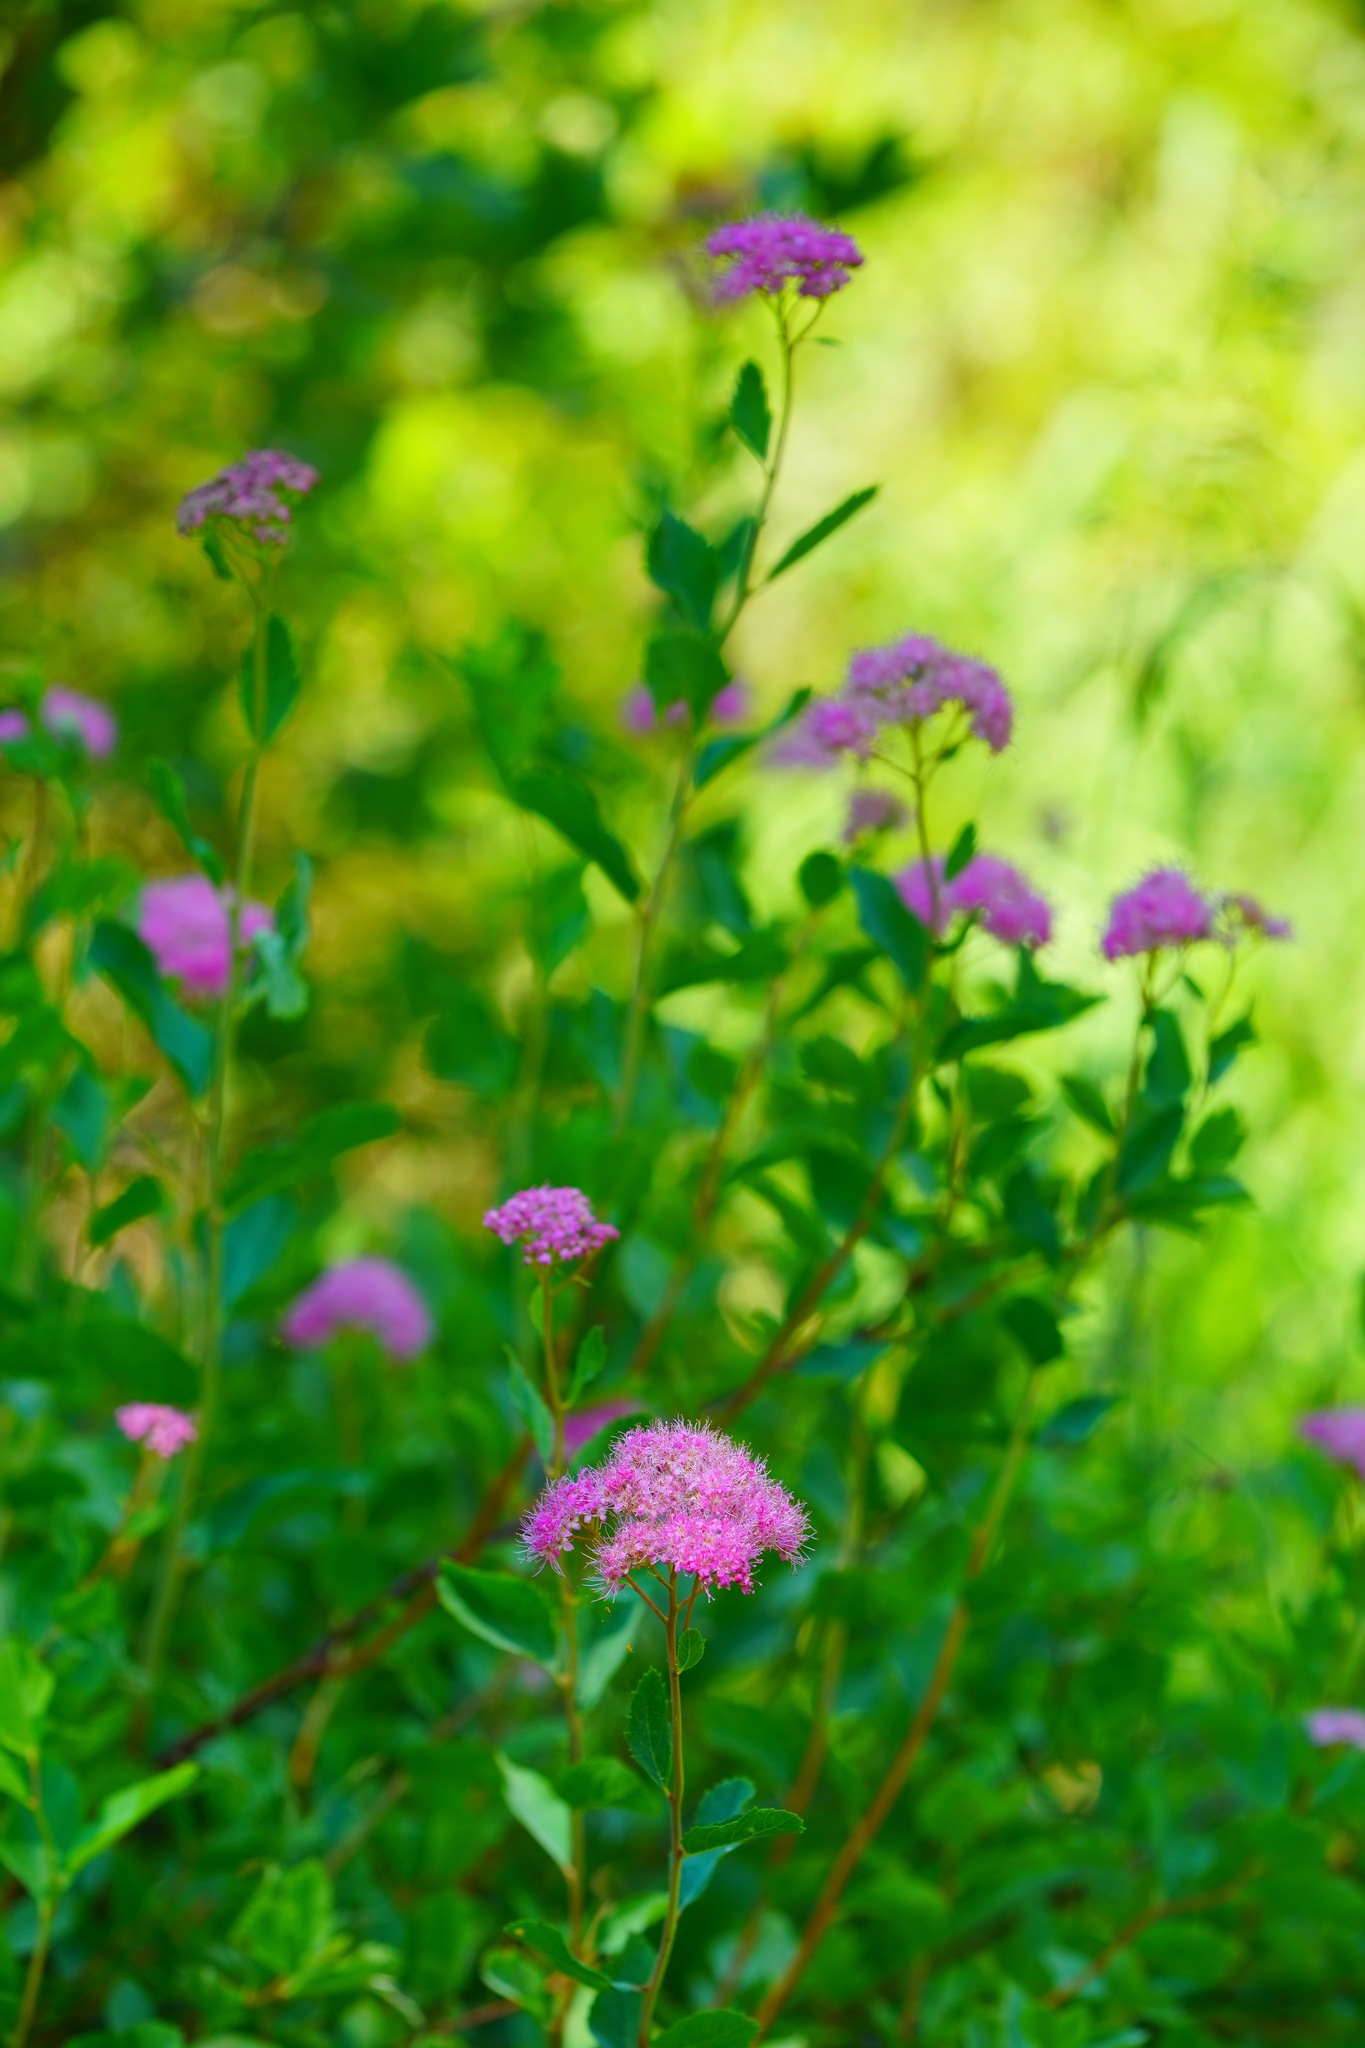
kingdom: Plantae
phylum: Tracheophyta
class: Magnoliopsida
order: Rosales
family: Rosaceae
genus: Spiraea
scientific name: Spiraea splendens
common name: Subalpine meadowsweet
